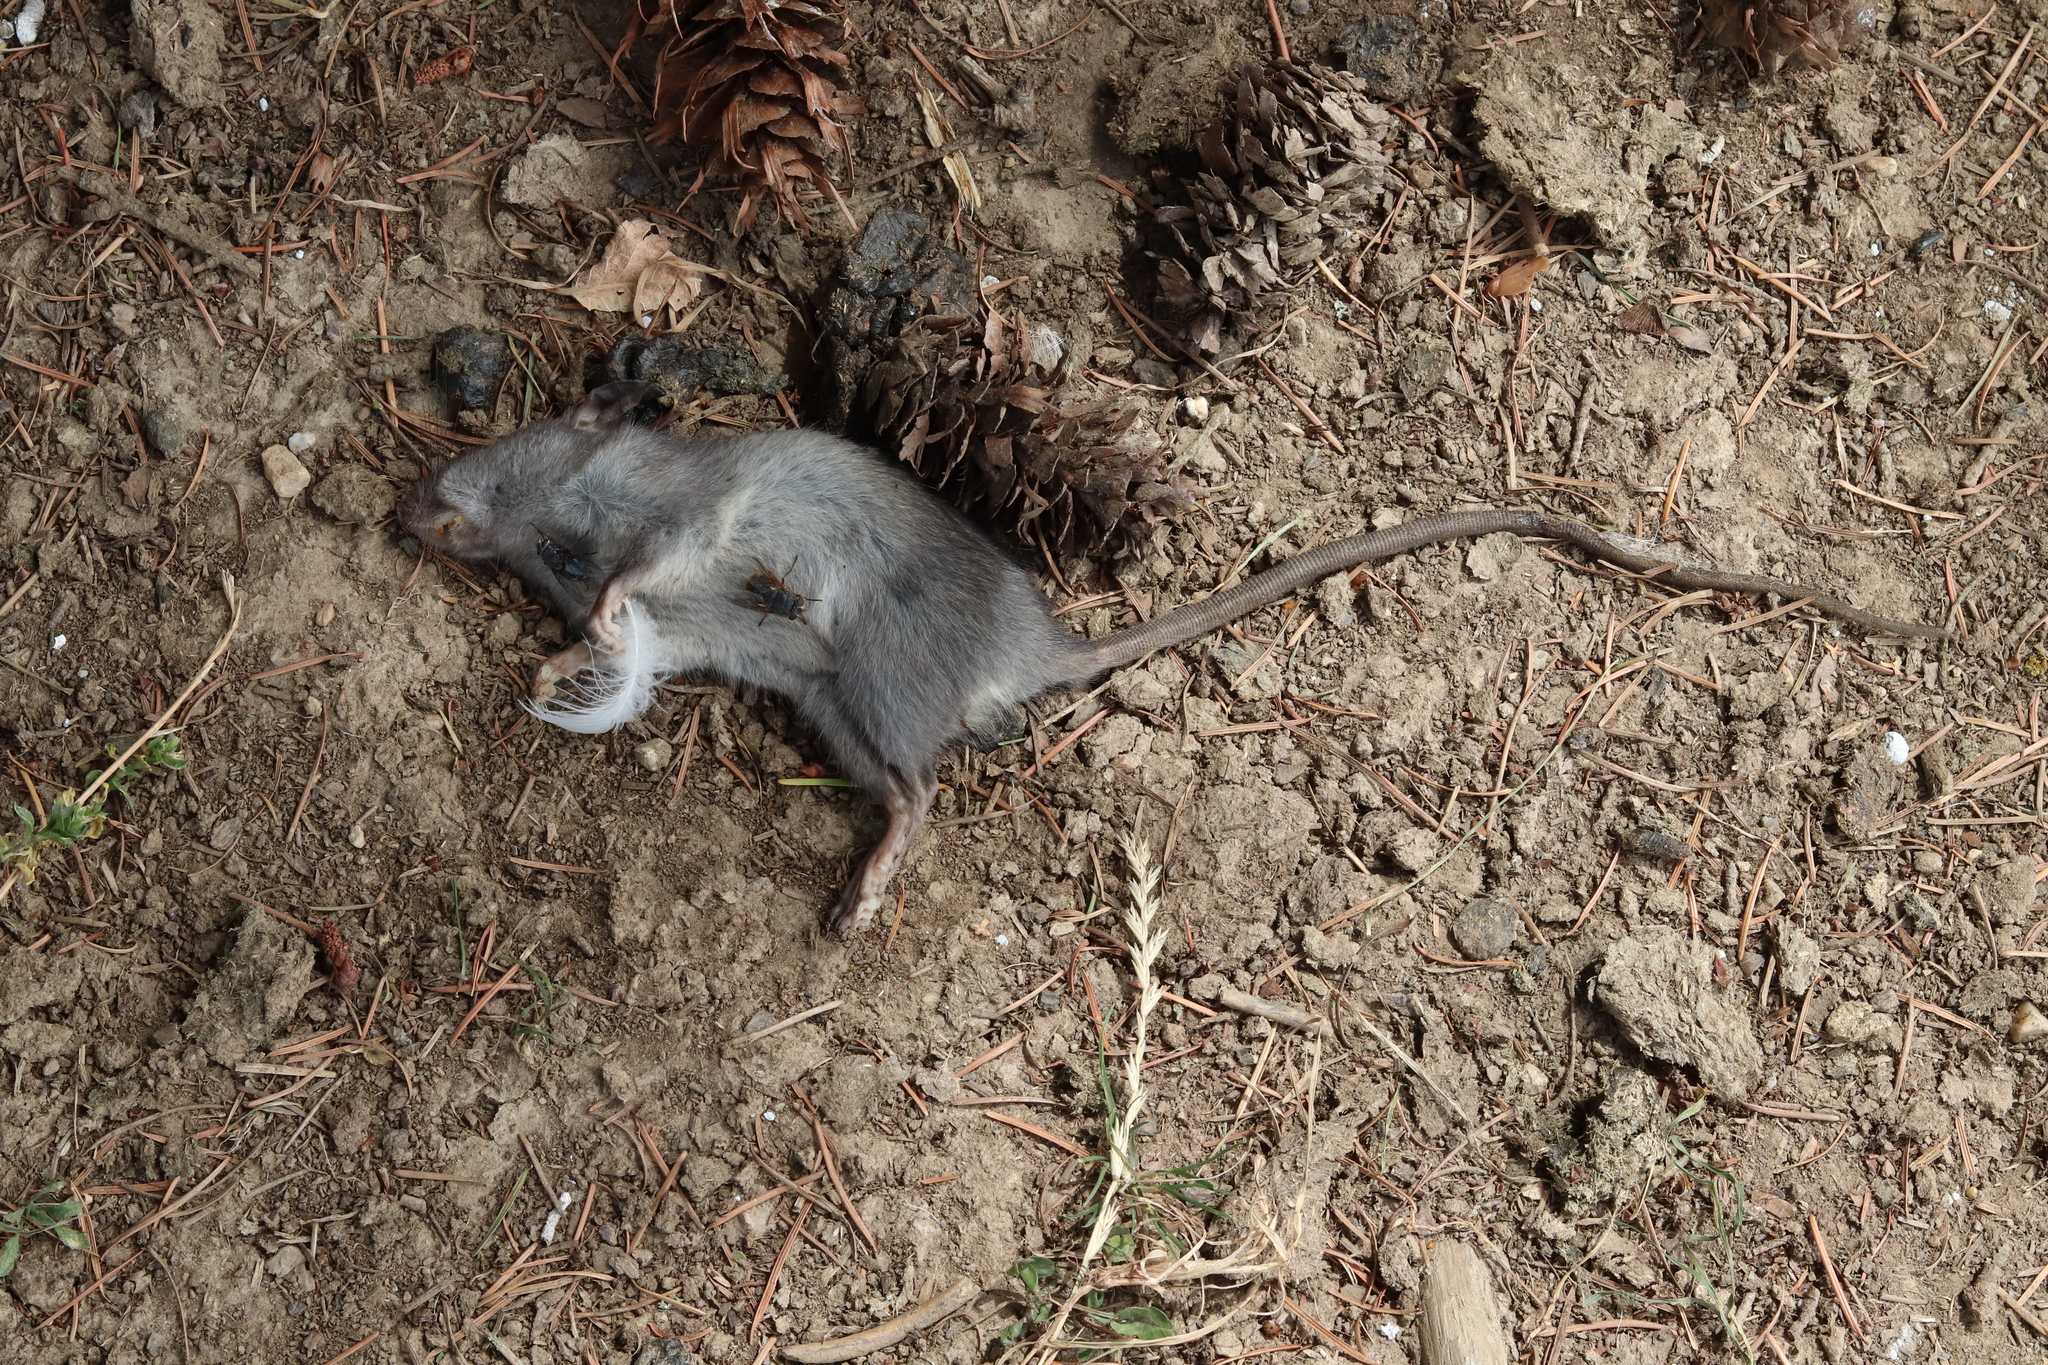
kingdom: Animalia
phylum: Chordata
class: Mammalia
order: Rodentia
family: Muridae
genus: Rattus
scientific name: Rattus rattus
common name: Black rat
